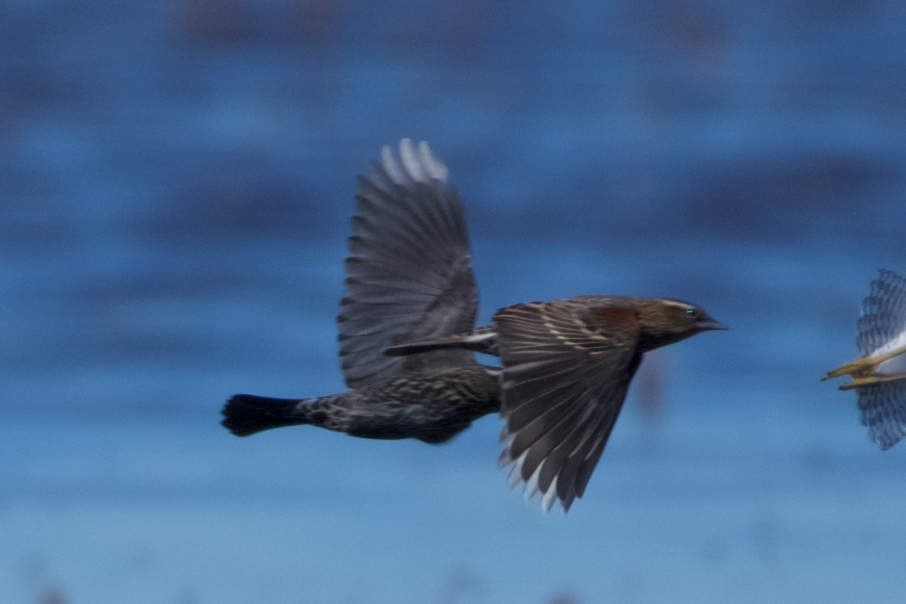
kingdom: Animalia
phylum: Chordata
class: Aves
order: Passeriformes
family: Icteridae
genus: Agelaius
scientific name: Agelaius phoeniceus
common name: Red-winged blackbird
